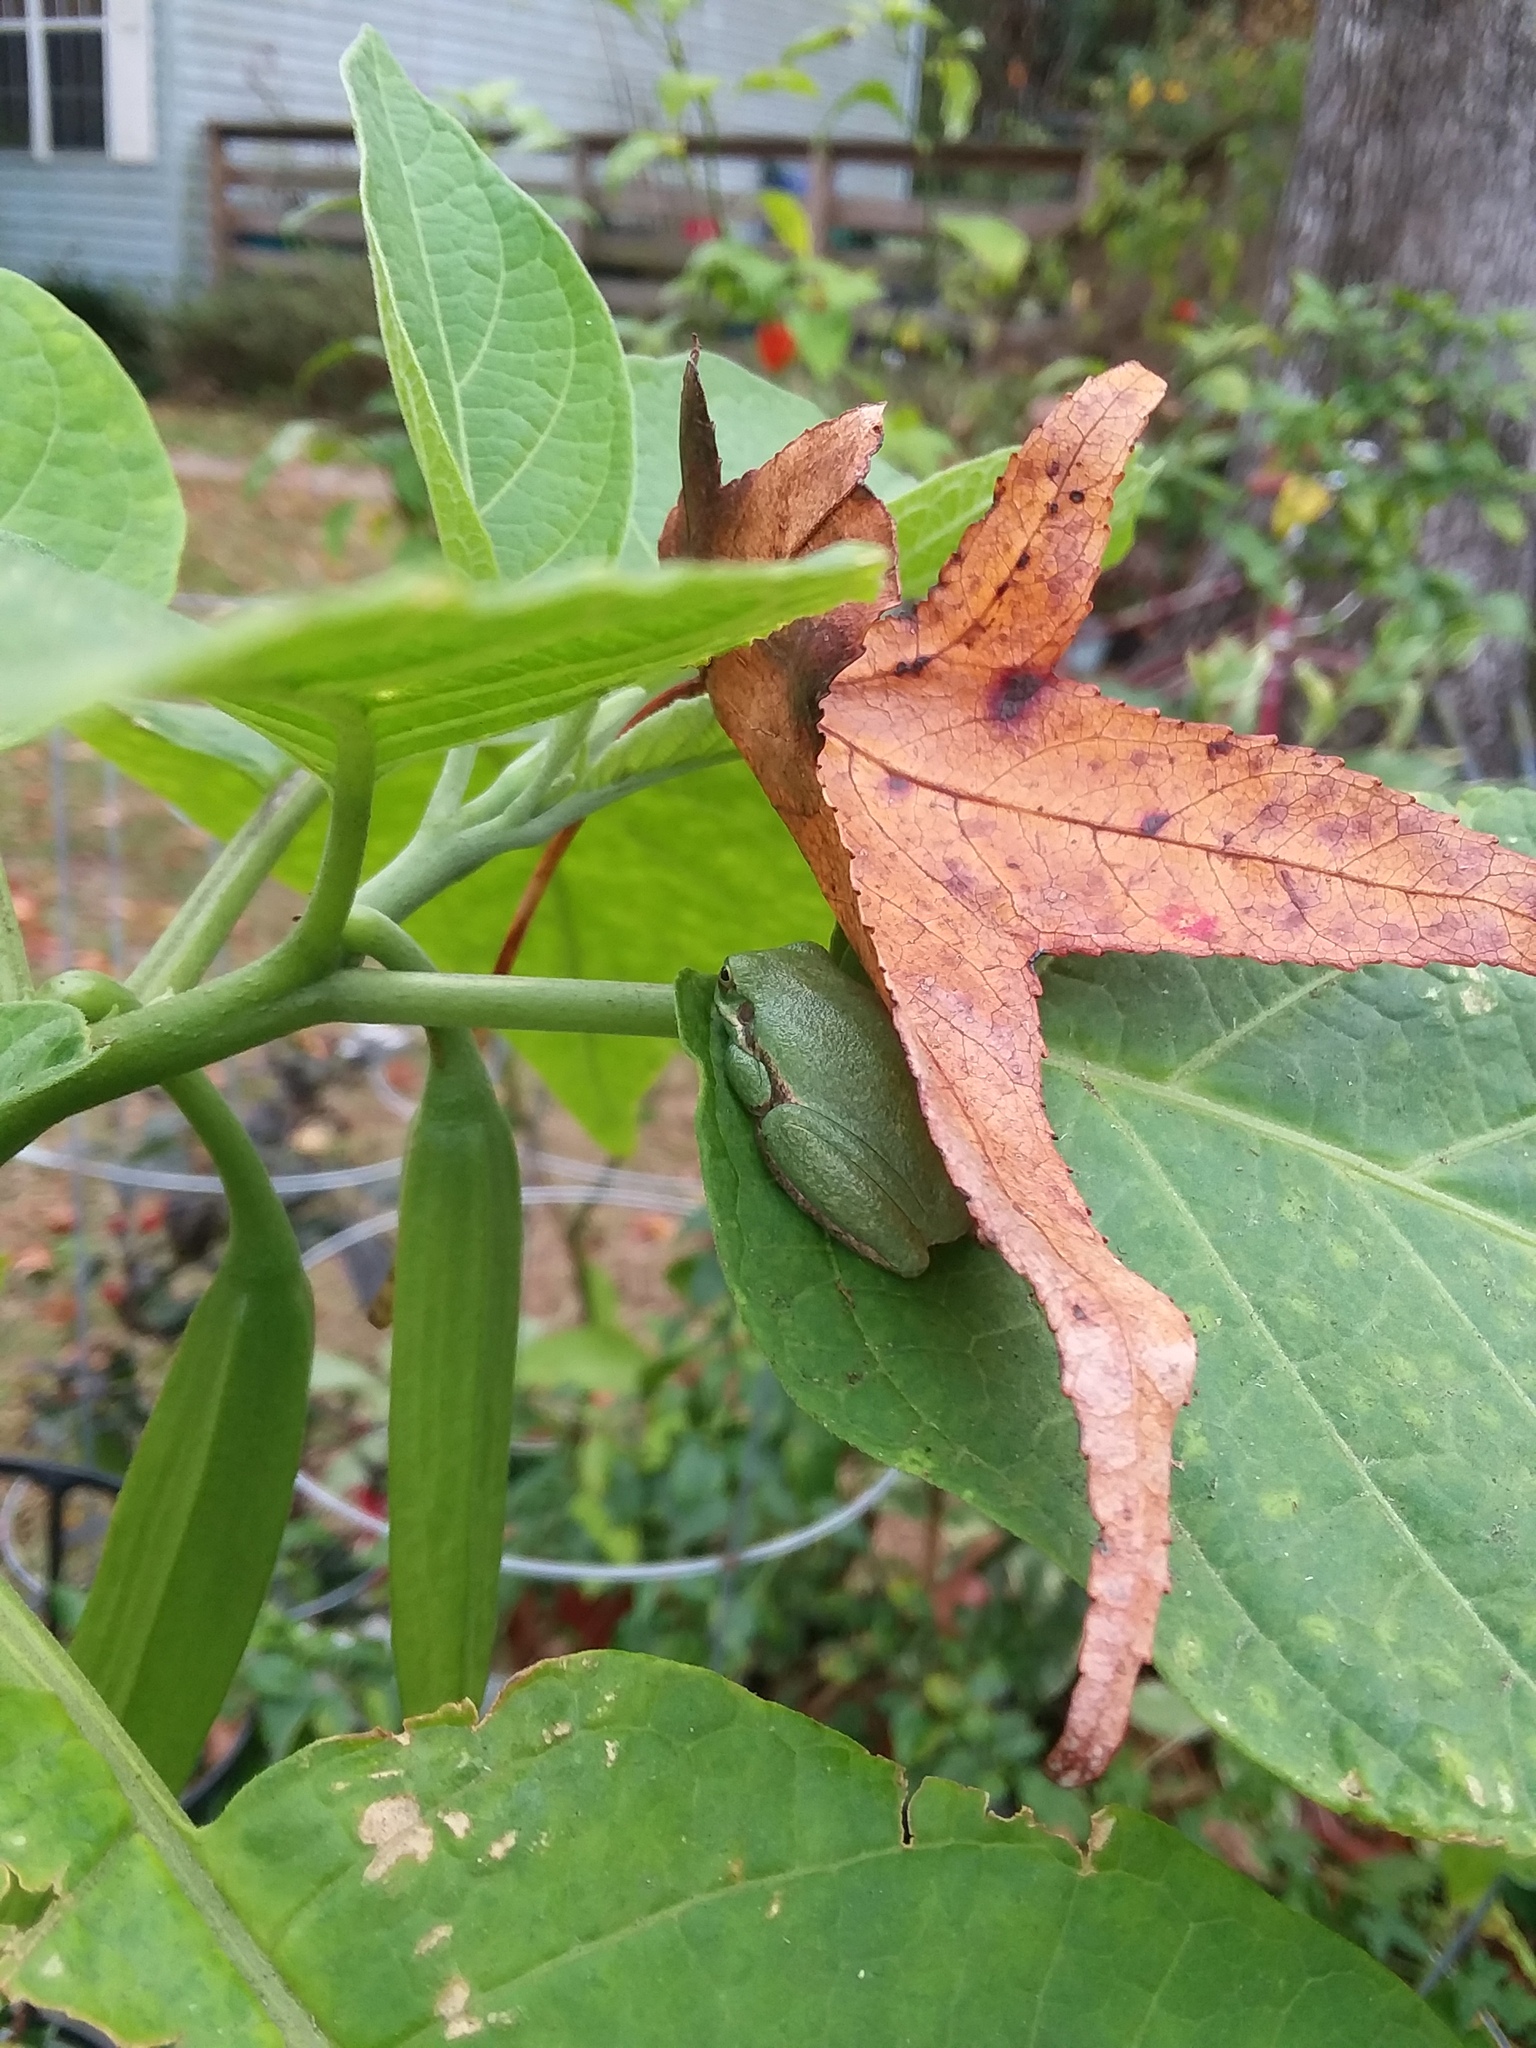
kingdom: Animalia
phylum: Chordata
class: Amphibia
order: Anura
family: Hylidae
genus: Dryophytes
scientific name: Dryophytes squirellus
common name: Squirrel treefrog
